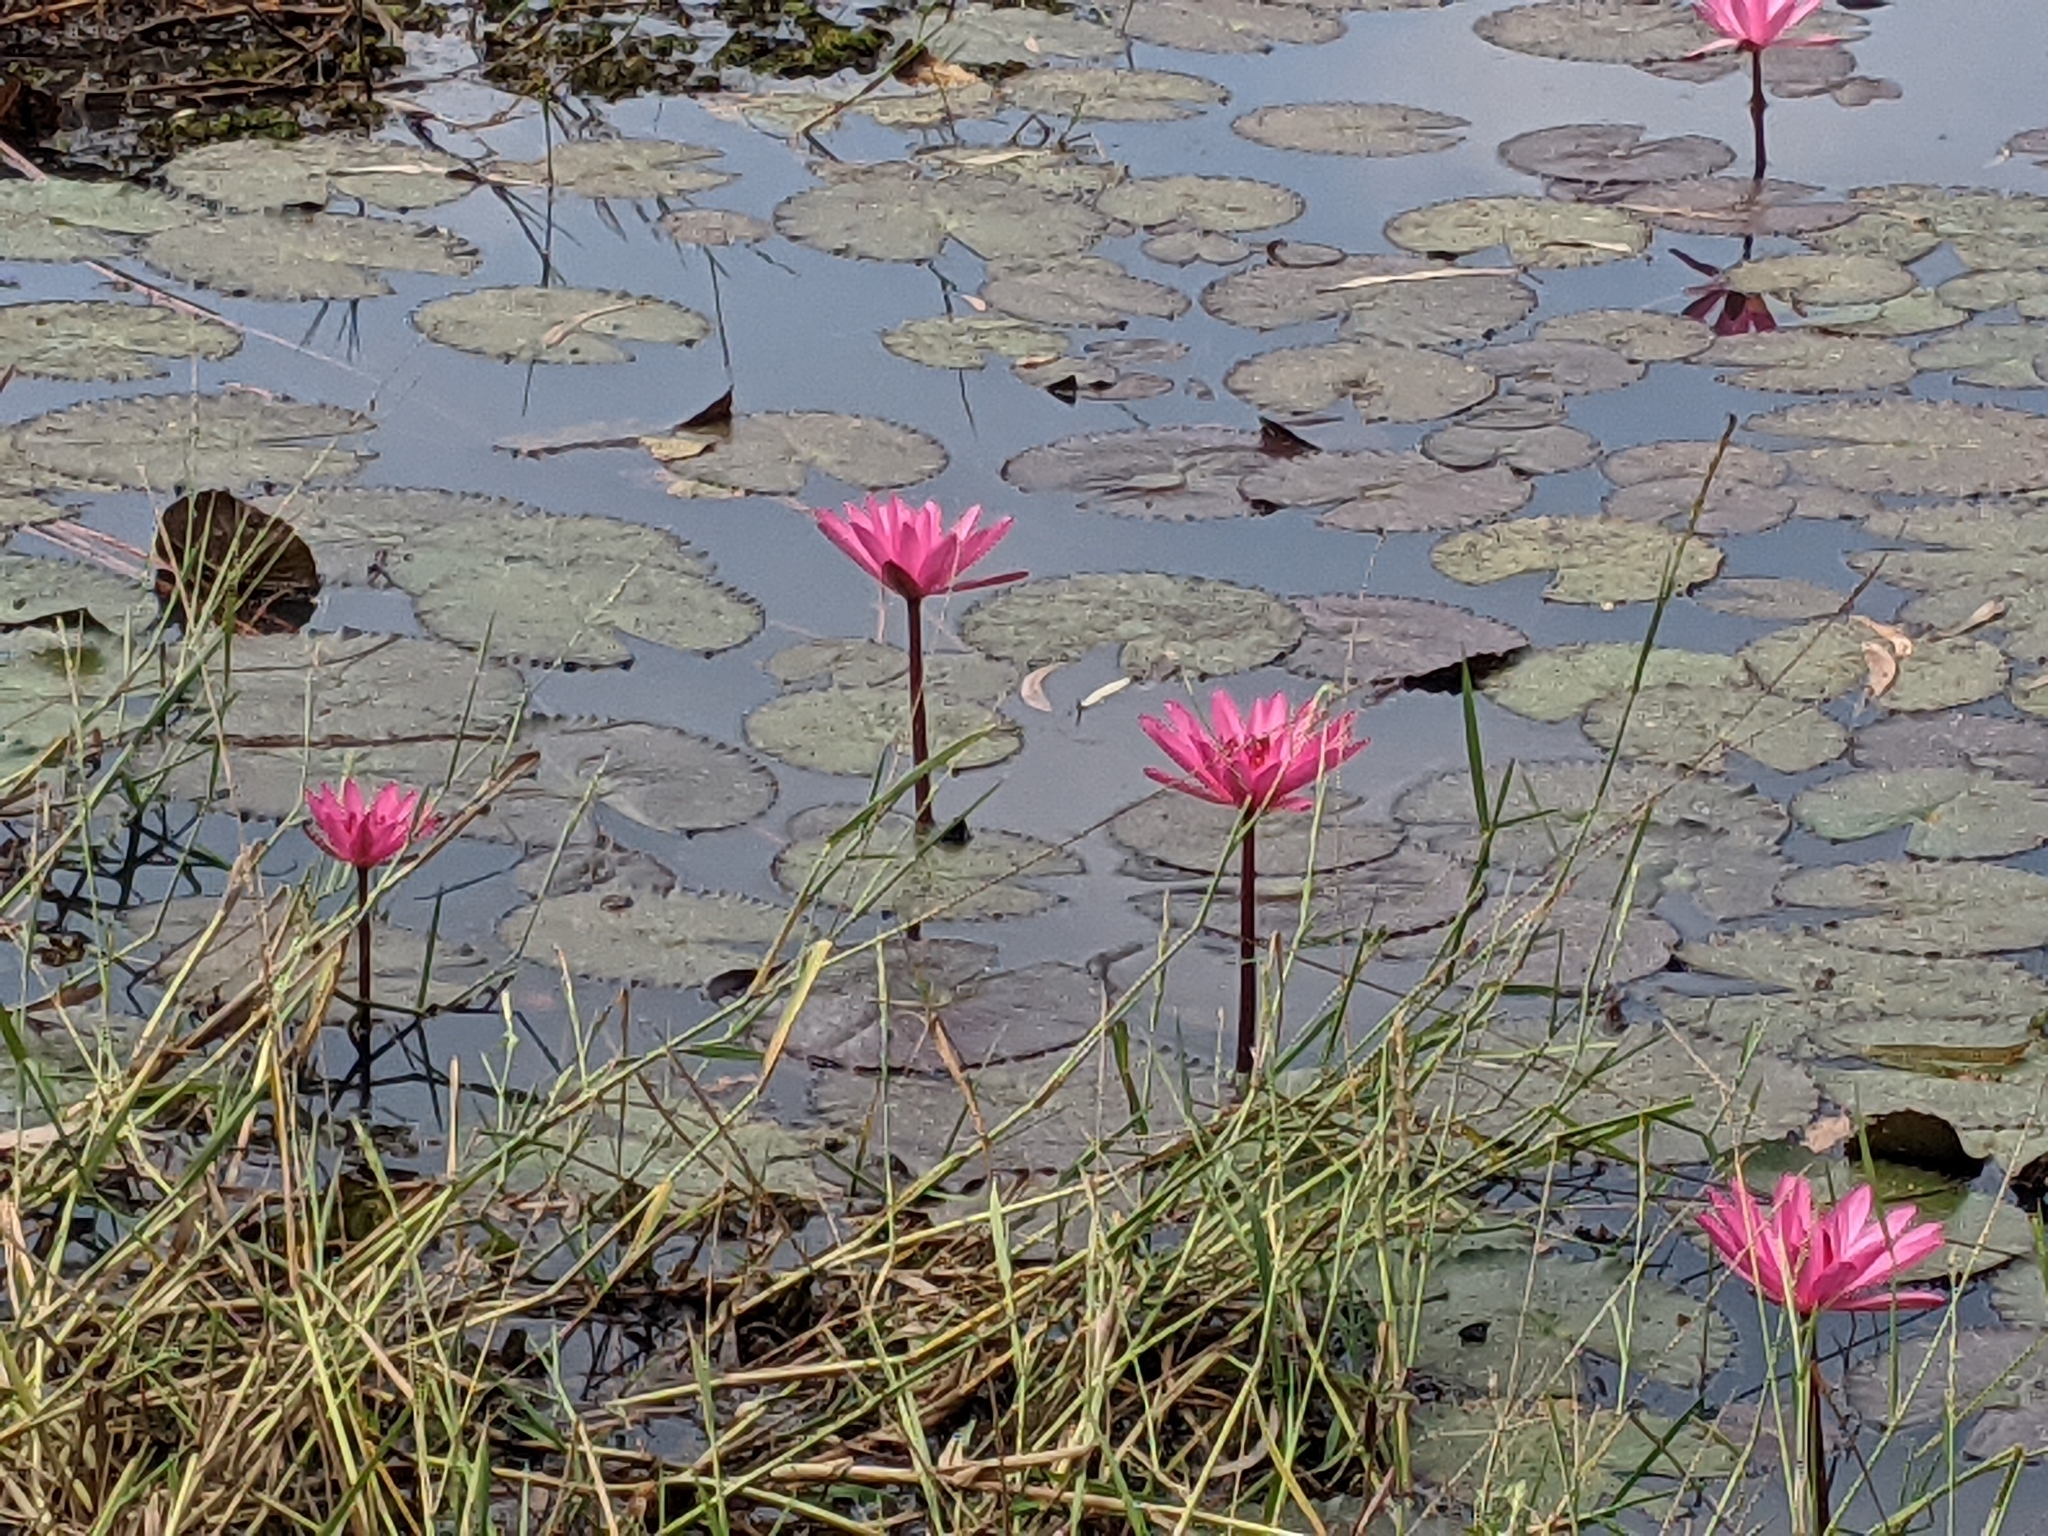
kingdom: Plantae
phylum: Tracheophyta
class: Magnoliopsida
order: Nymphaeales
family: Nymphaeaceae
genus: Nymphaea
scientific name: Nymphaea rubra
